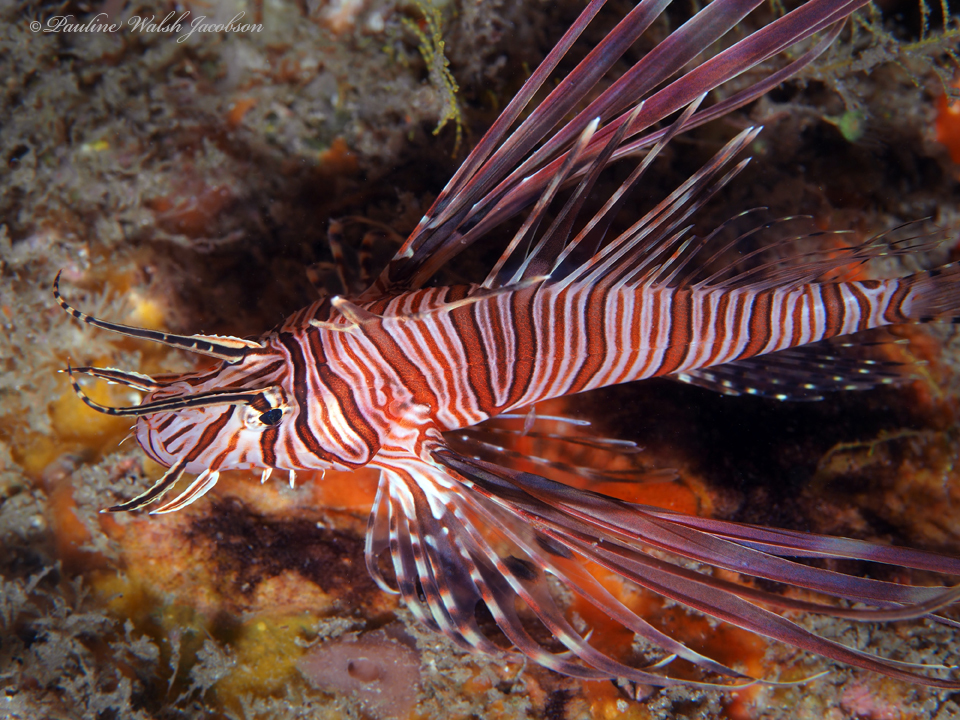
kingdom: Animalia
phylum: Chordata
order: Scorpaeniformes
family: Scorpaenidae
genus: Pterois
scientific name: Pterois volitans
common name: Lionfish
